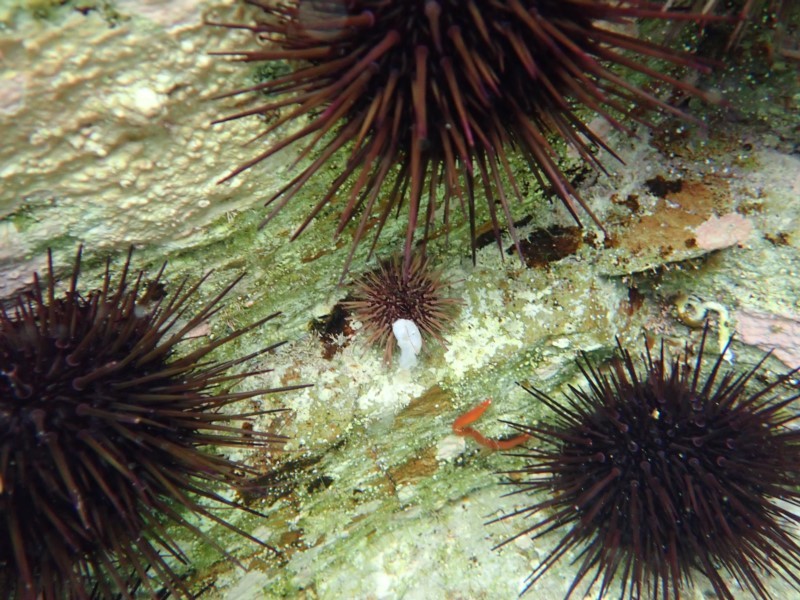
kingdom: Animalia
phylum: Mollusca
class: Gastropoda
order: Cephalaspidea
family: Aplustridae
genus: Bullina
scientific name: Bullina lineata
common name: Lined bubble snail
